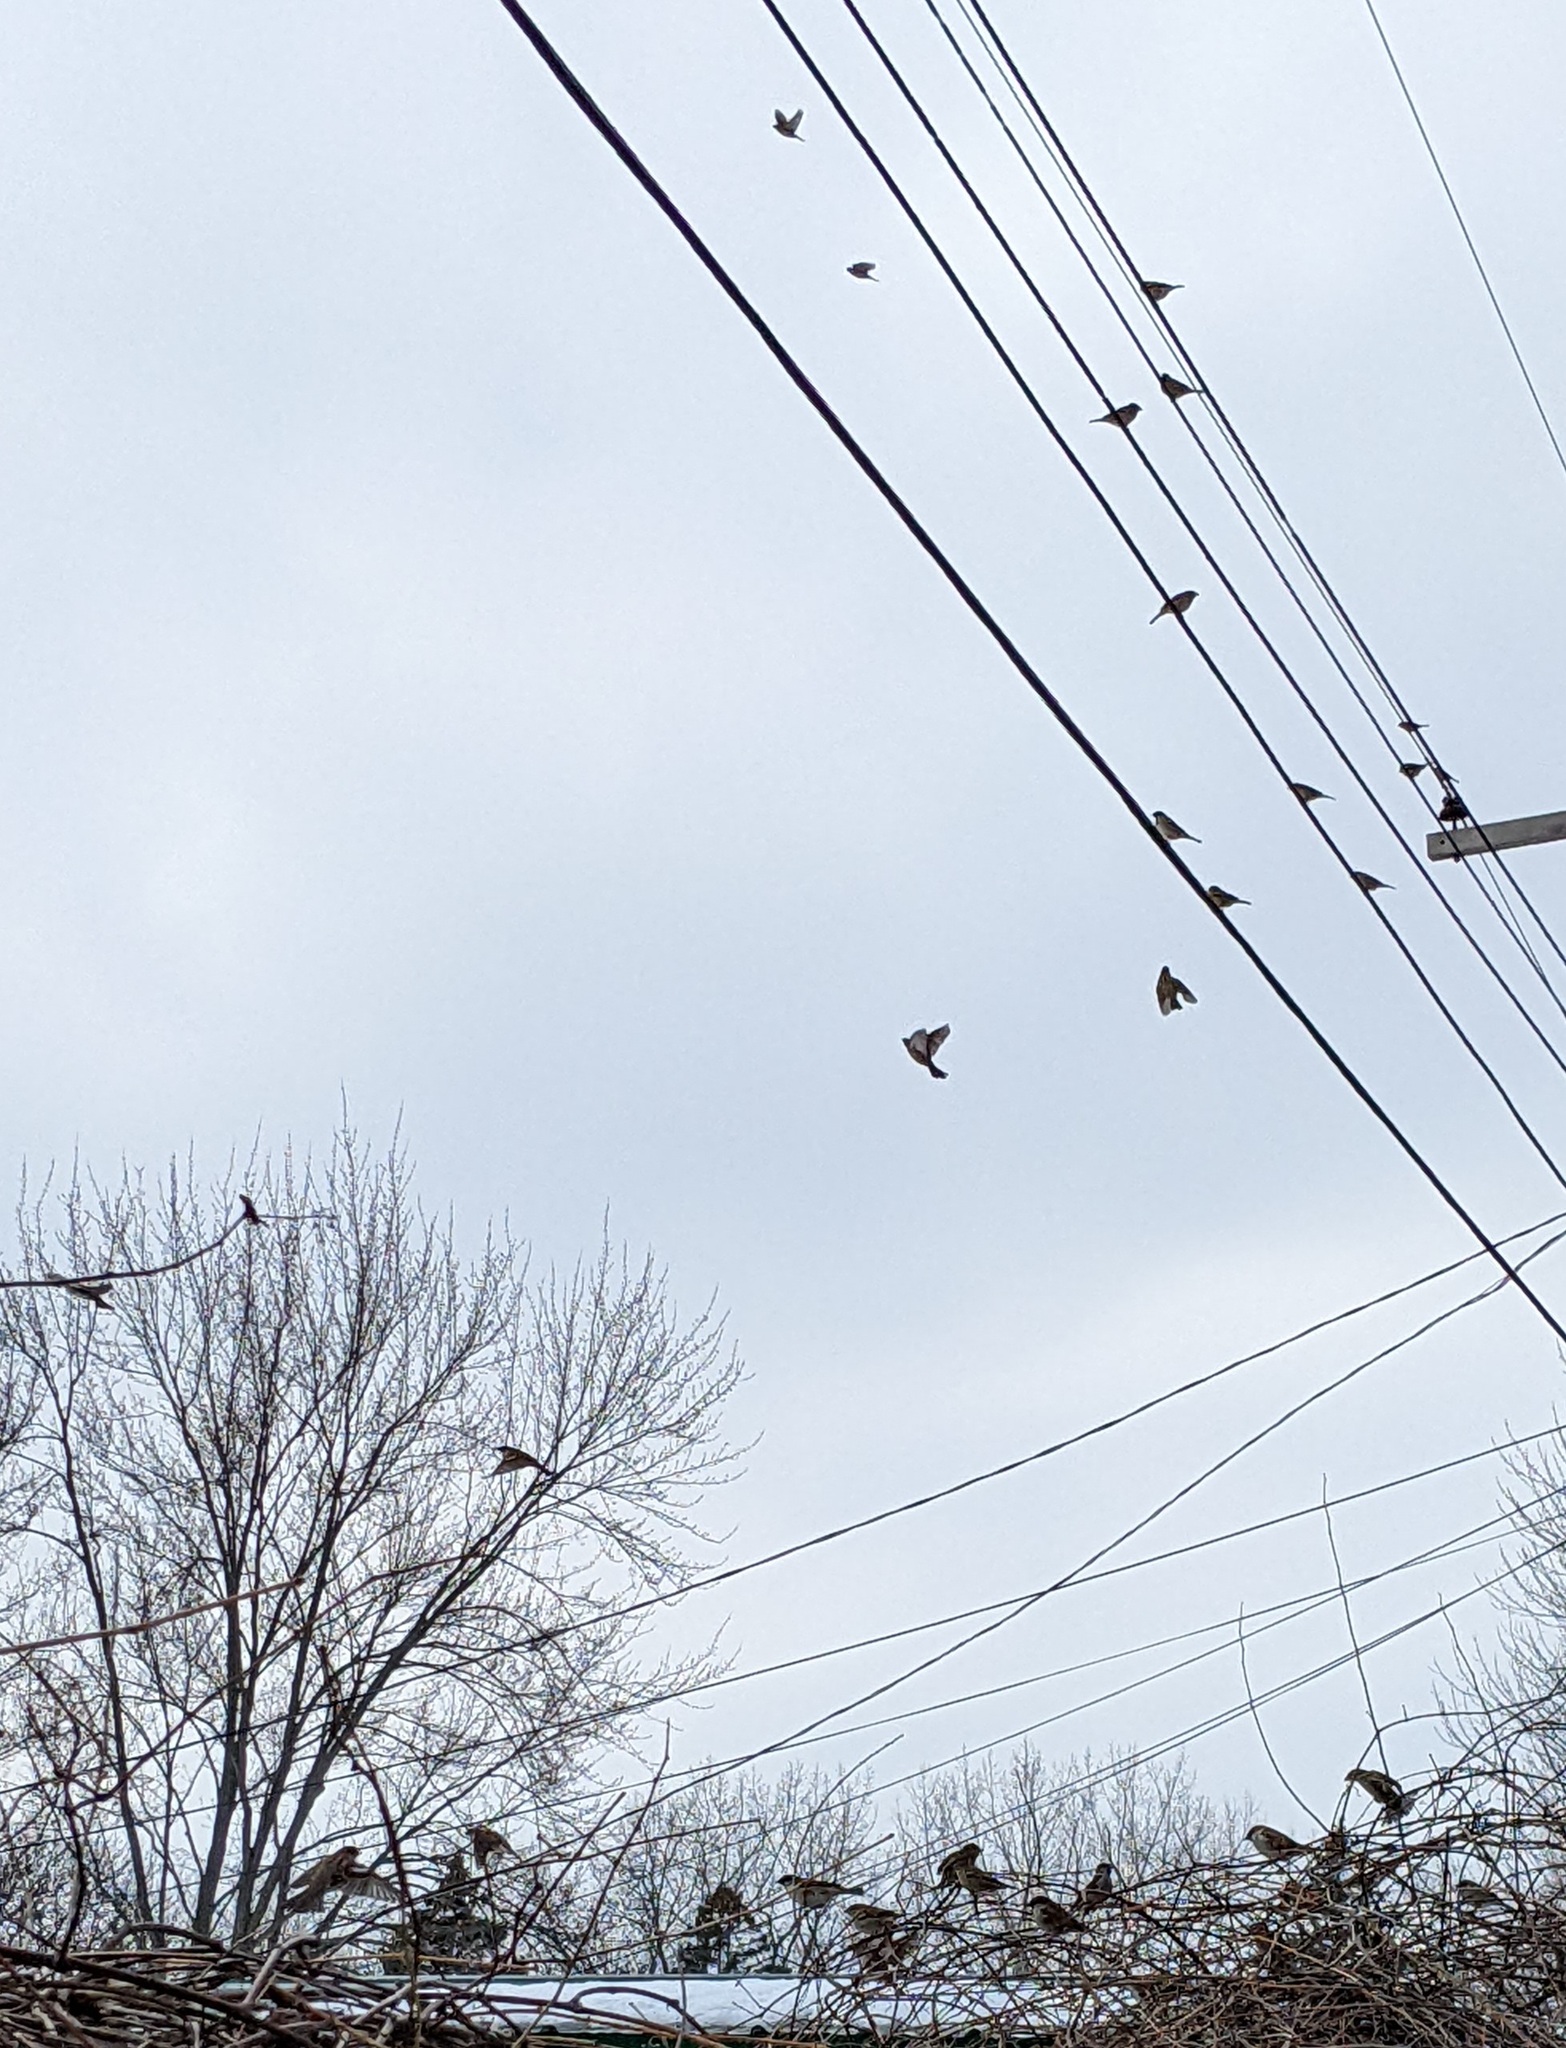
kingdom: Animalia
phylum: Chordata
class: Aves
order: Passeriformes
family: Passeridae
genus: Passer
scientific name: Passer domesticus
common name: House sparrow
